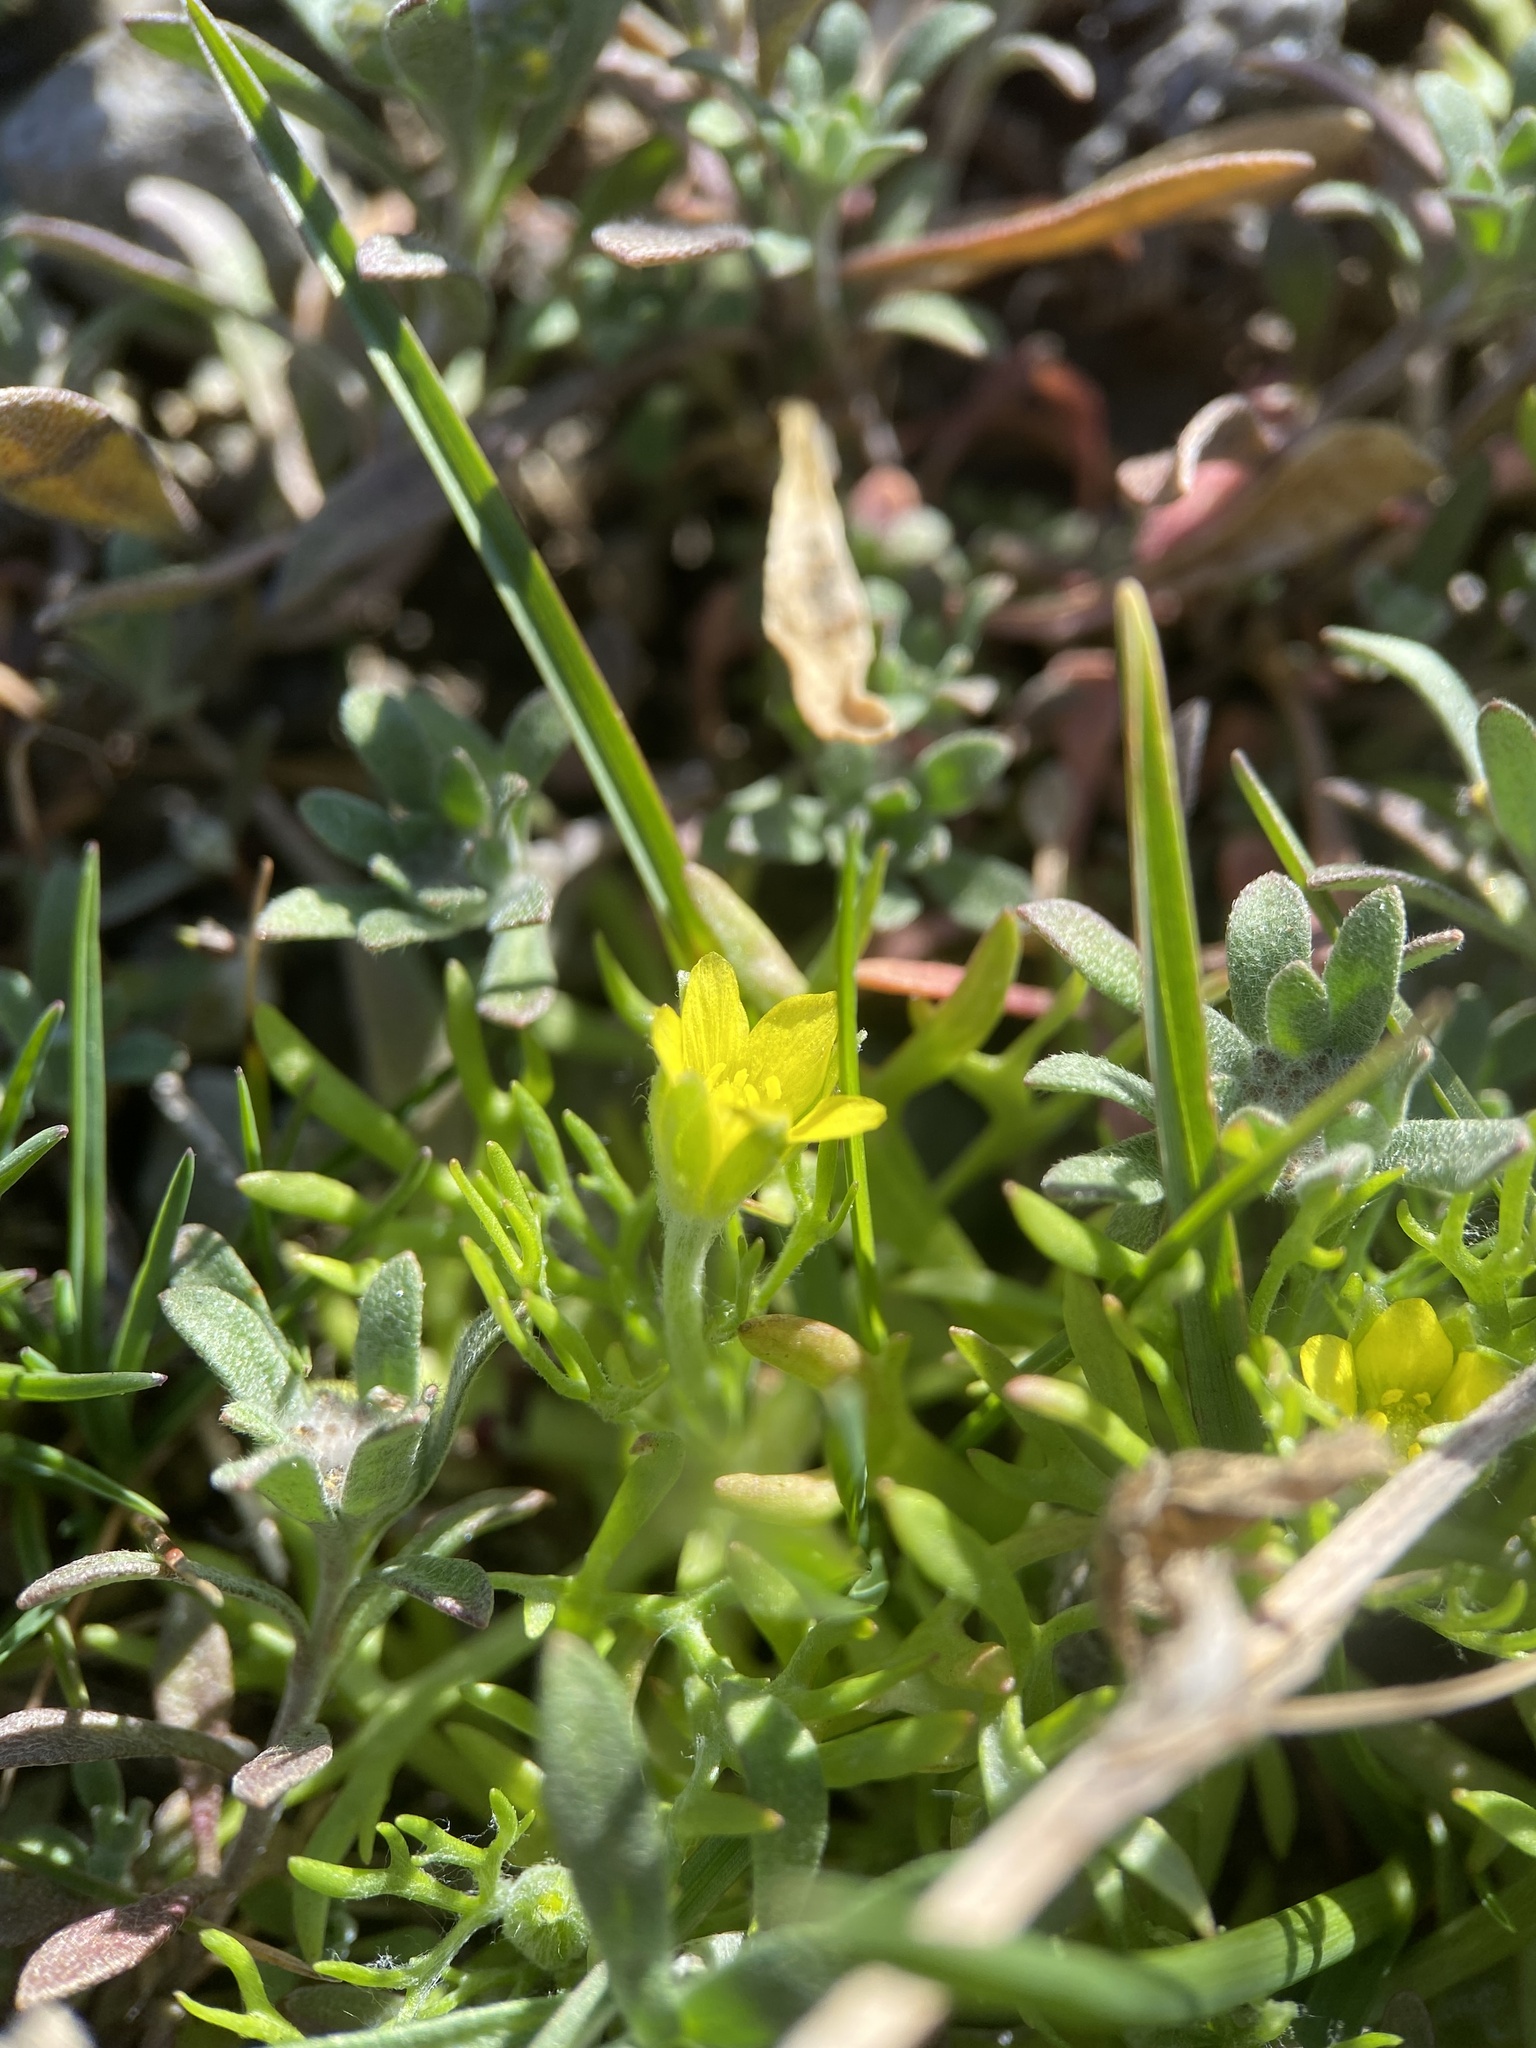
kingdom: Plantae
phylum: Tracheophyta
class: Magnoliopsida
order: Ranunculales
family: Ranunculaceae
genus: Ceratocephala
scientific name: Ceratocephala orthoceras
